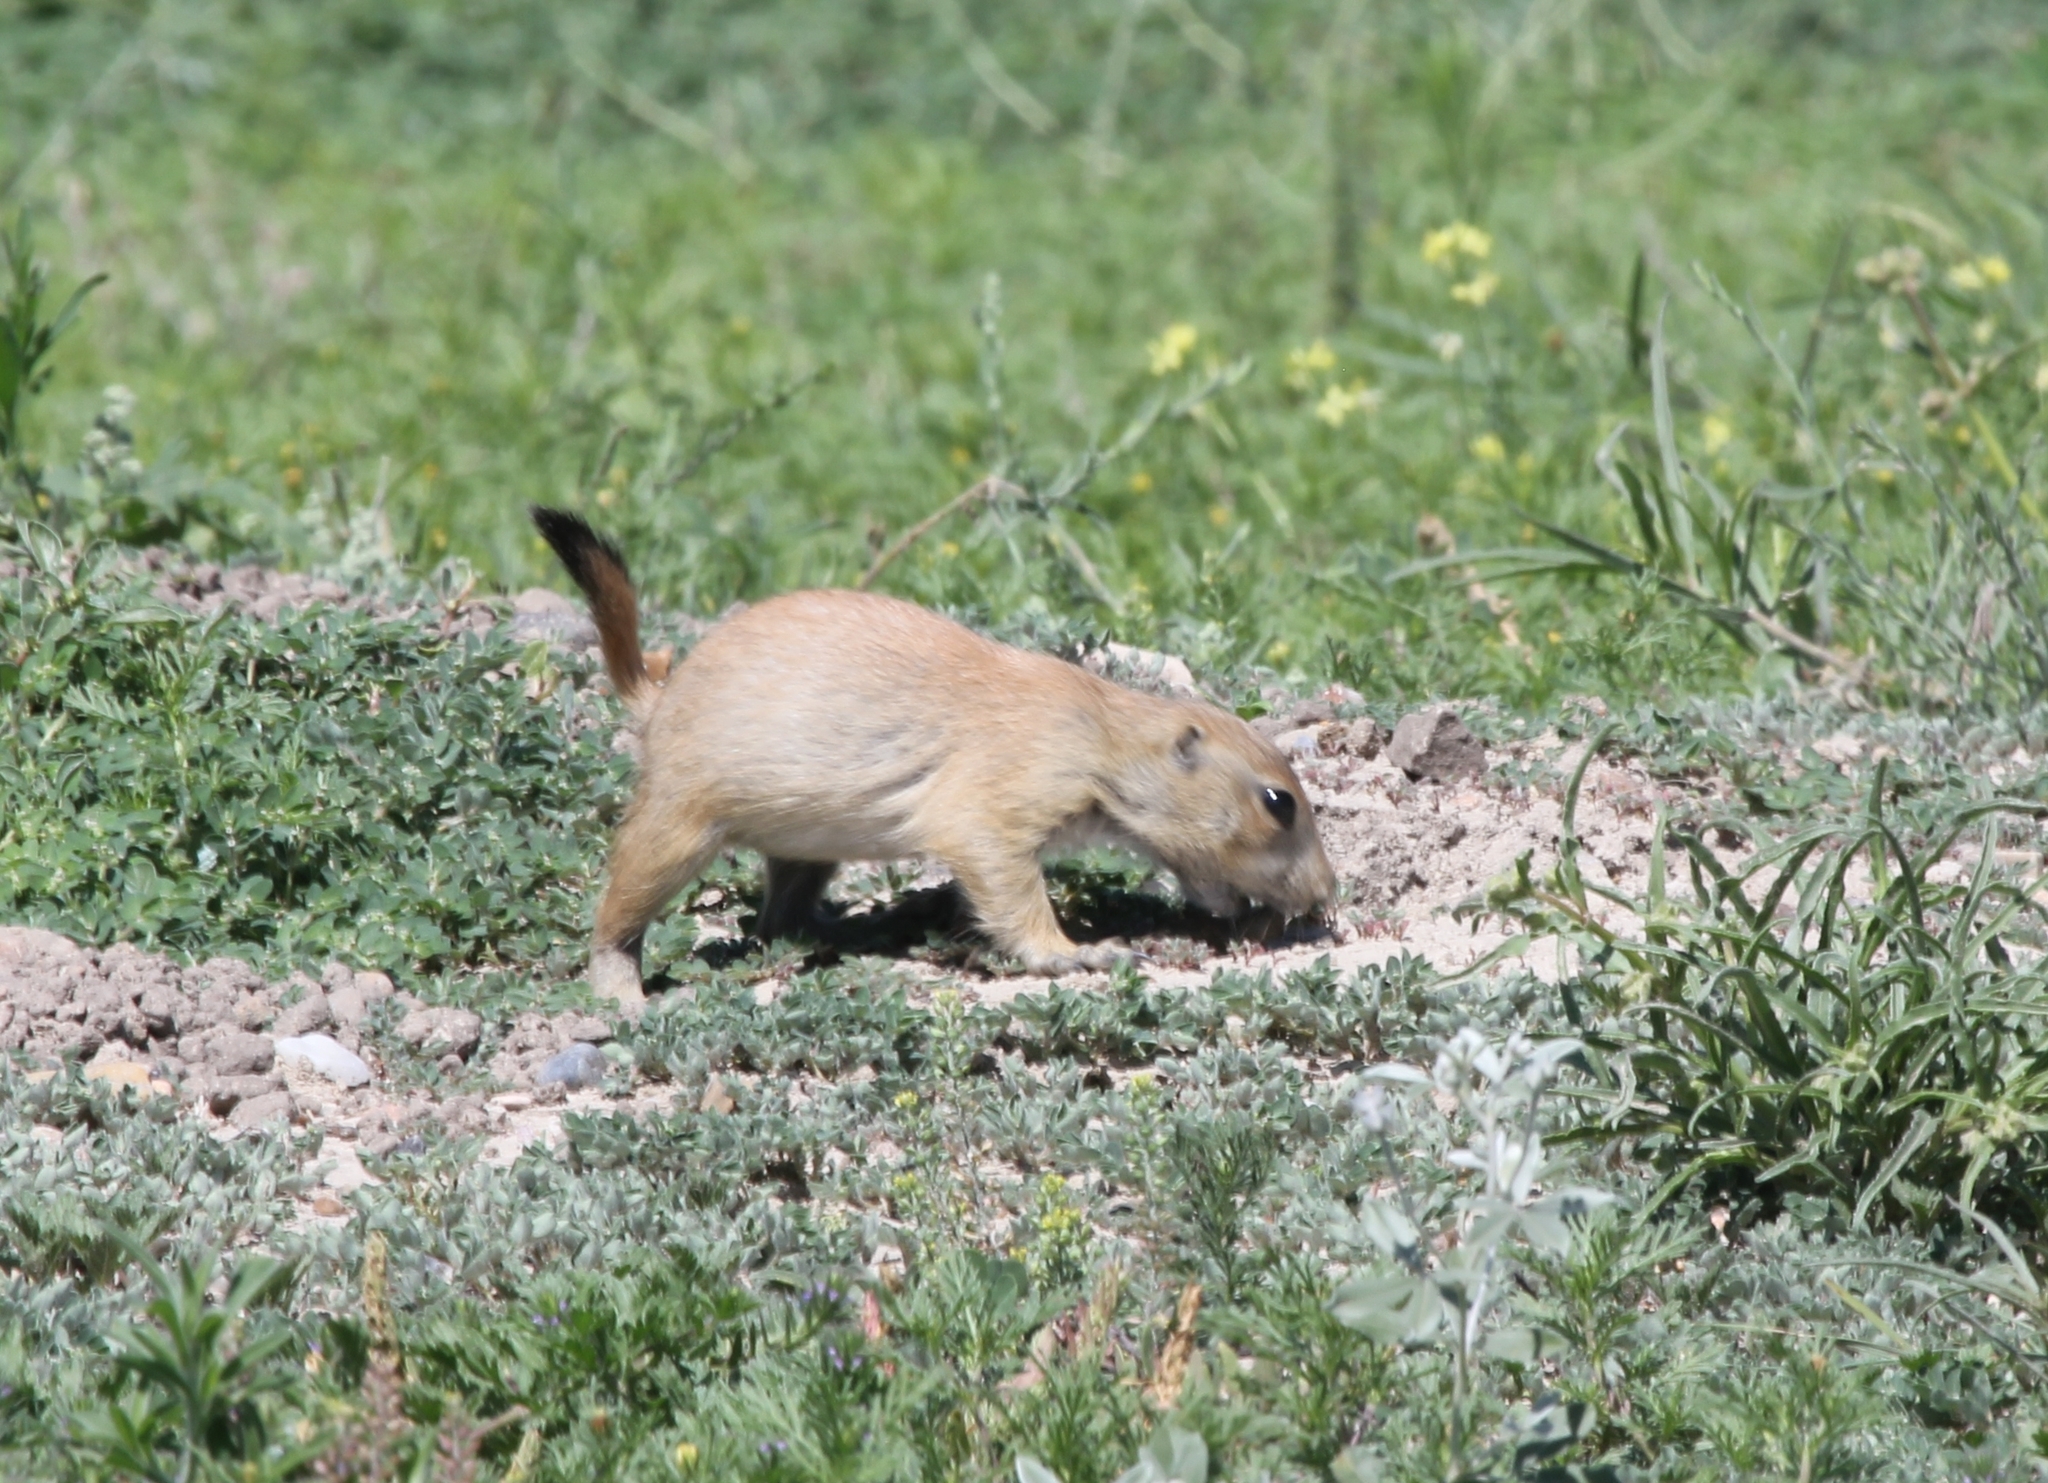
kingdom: Animalia
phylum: Chordata
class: Mammalia
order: Rodentia
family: Sciuridae
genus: Cynomys
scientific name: Cynomys ludovicianus
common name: Black-tailed prairie dog
